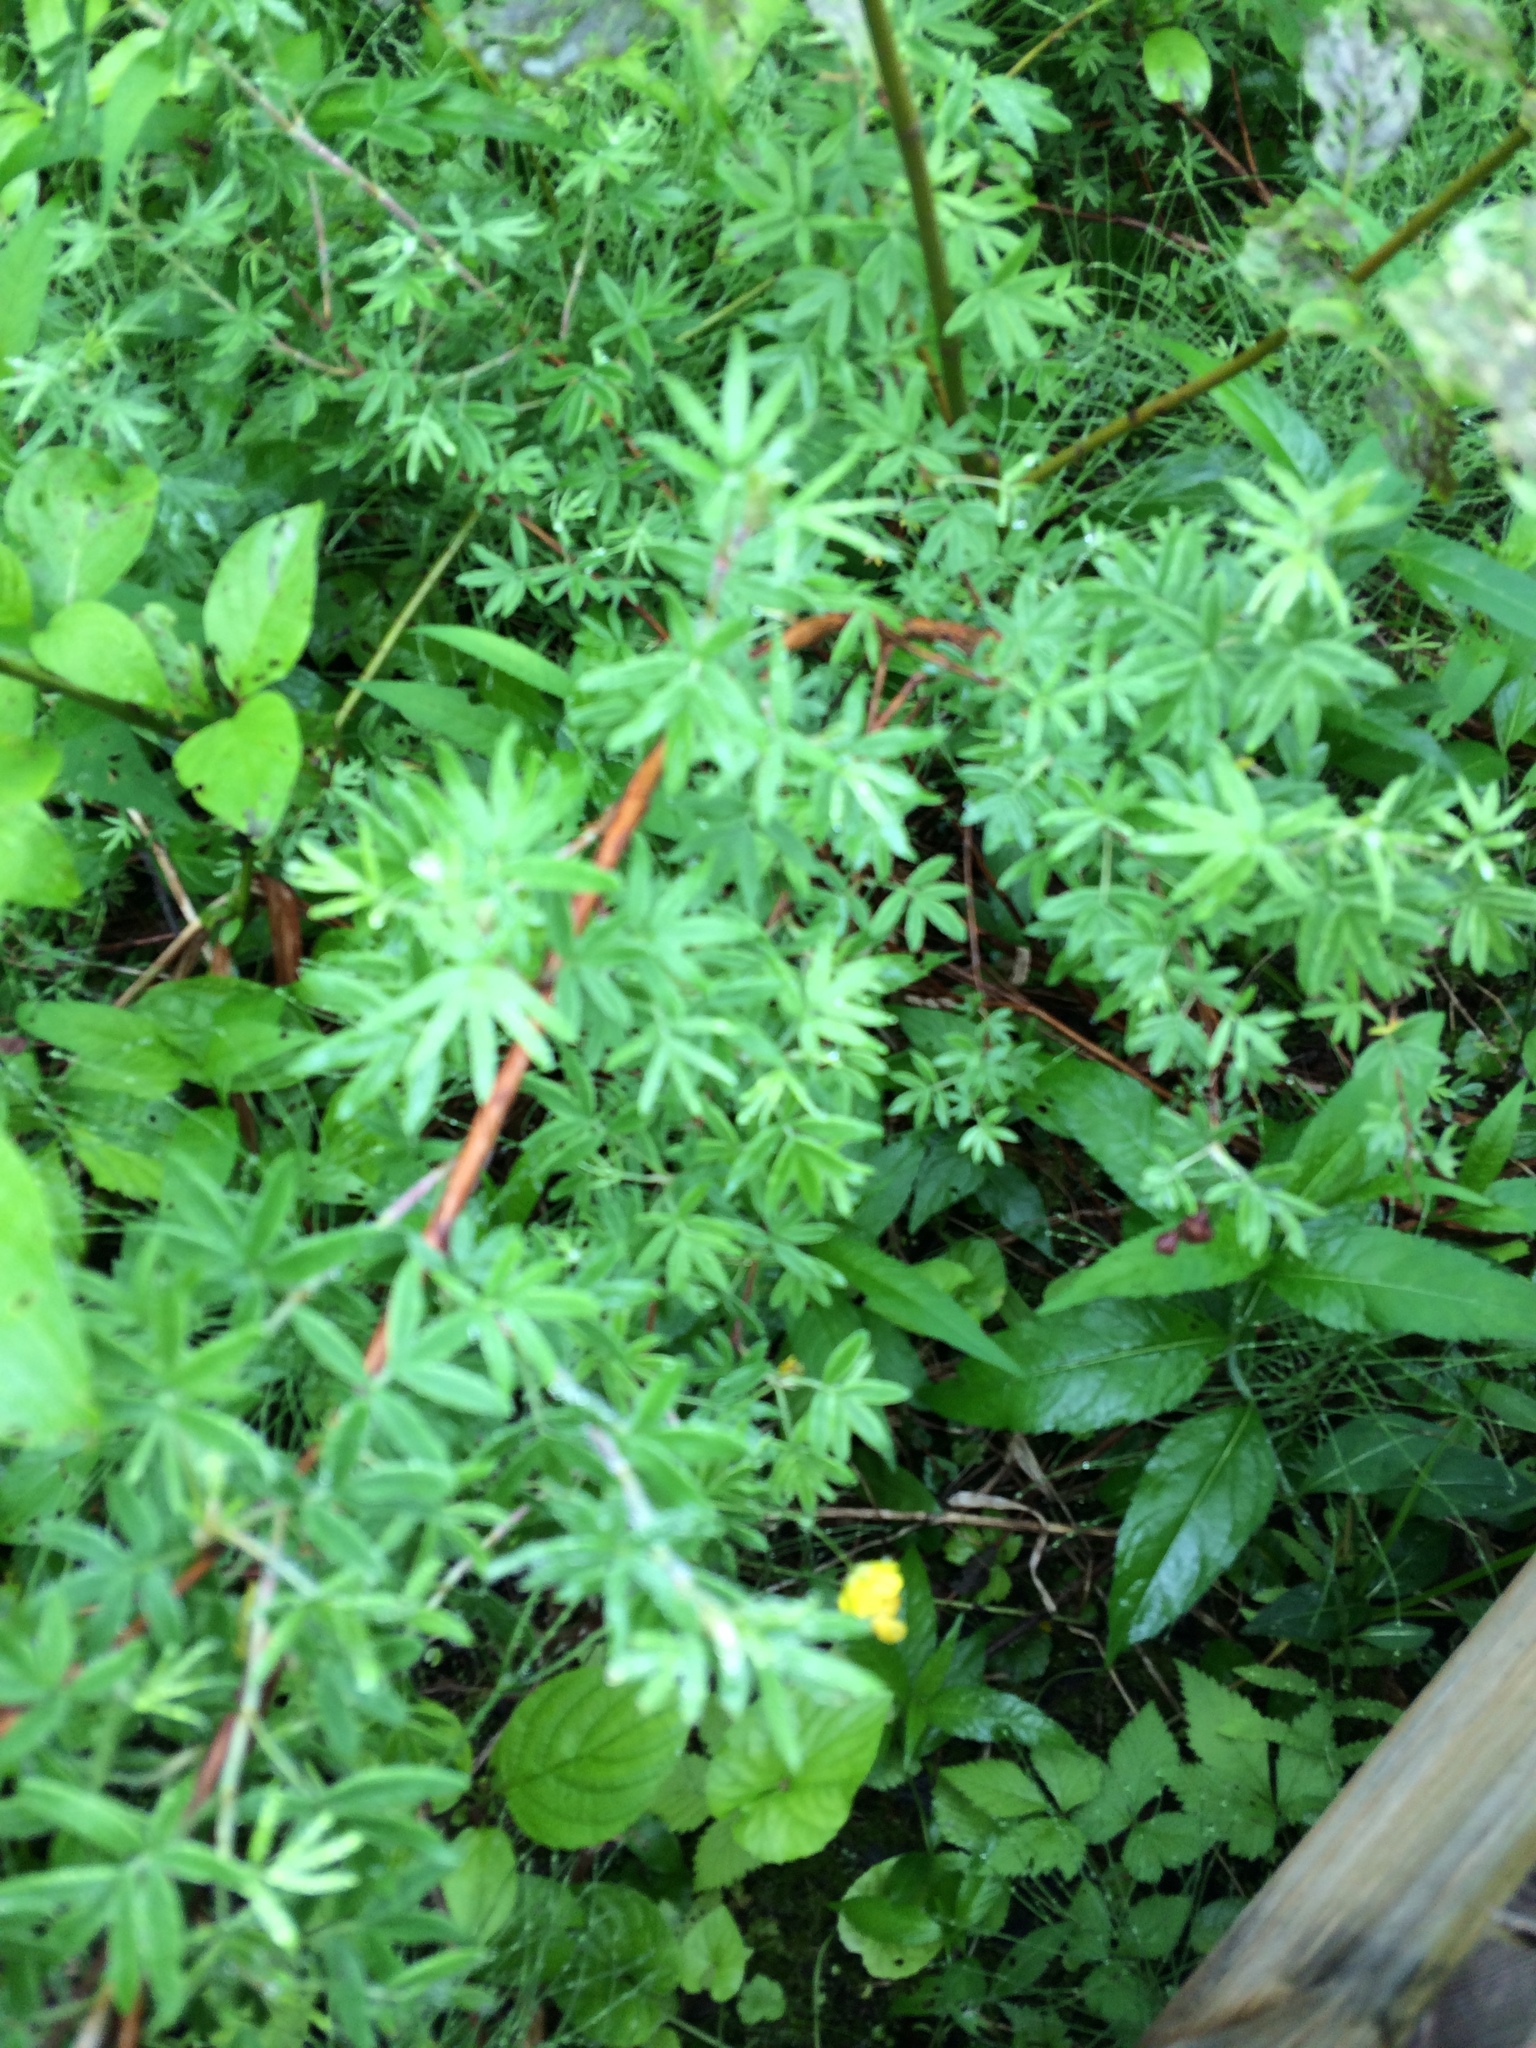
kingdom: Plantae
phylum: Tracheophyta
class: Magnoliopsida
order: Rosales
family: Rosaceae
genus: Dasiphora
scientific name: Dasiphora fruticosa
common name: Shrubby cinquefoil
